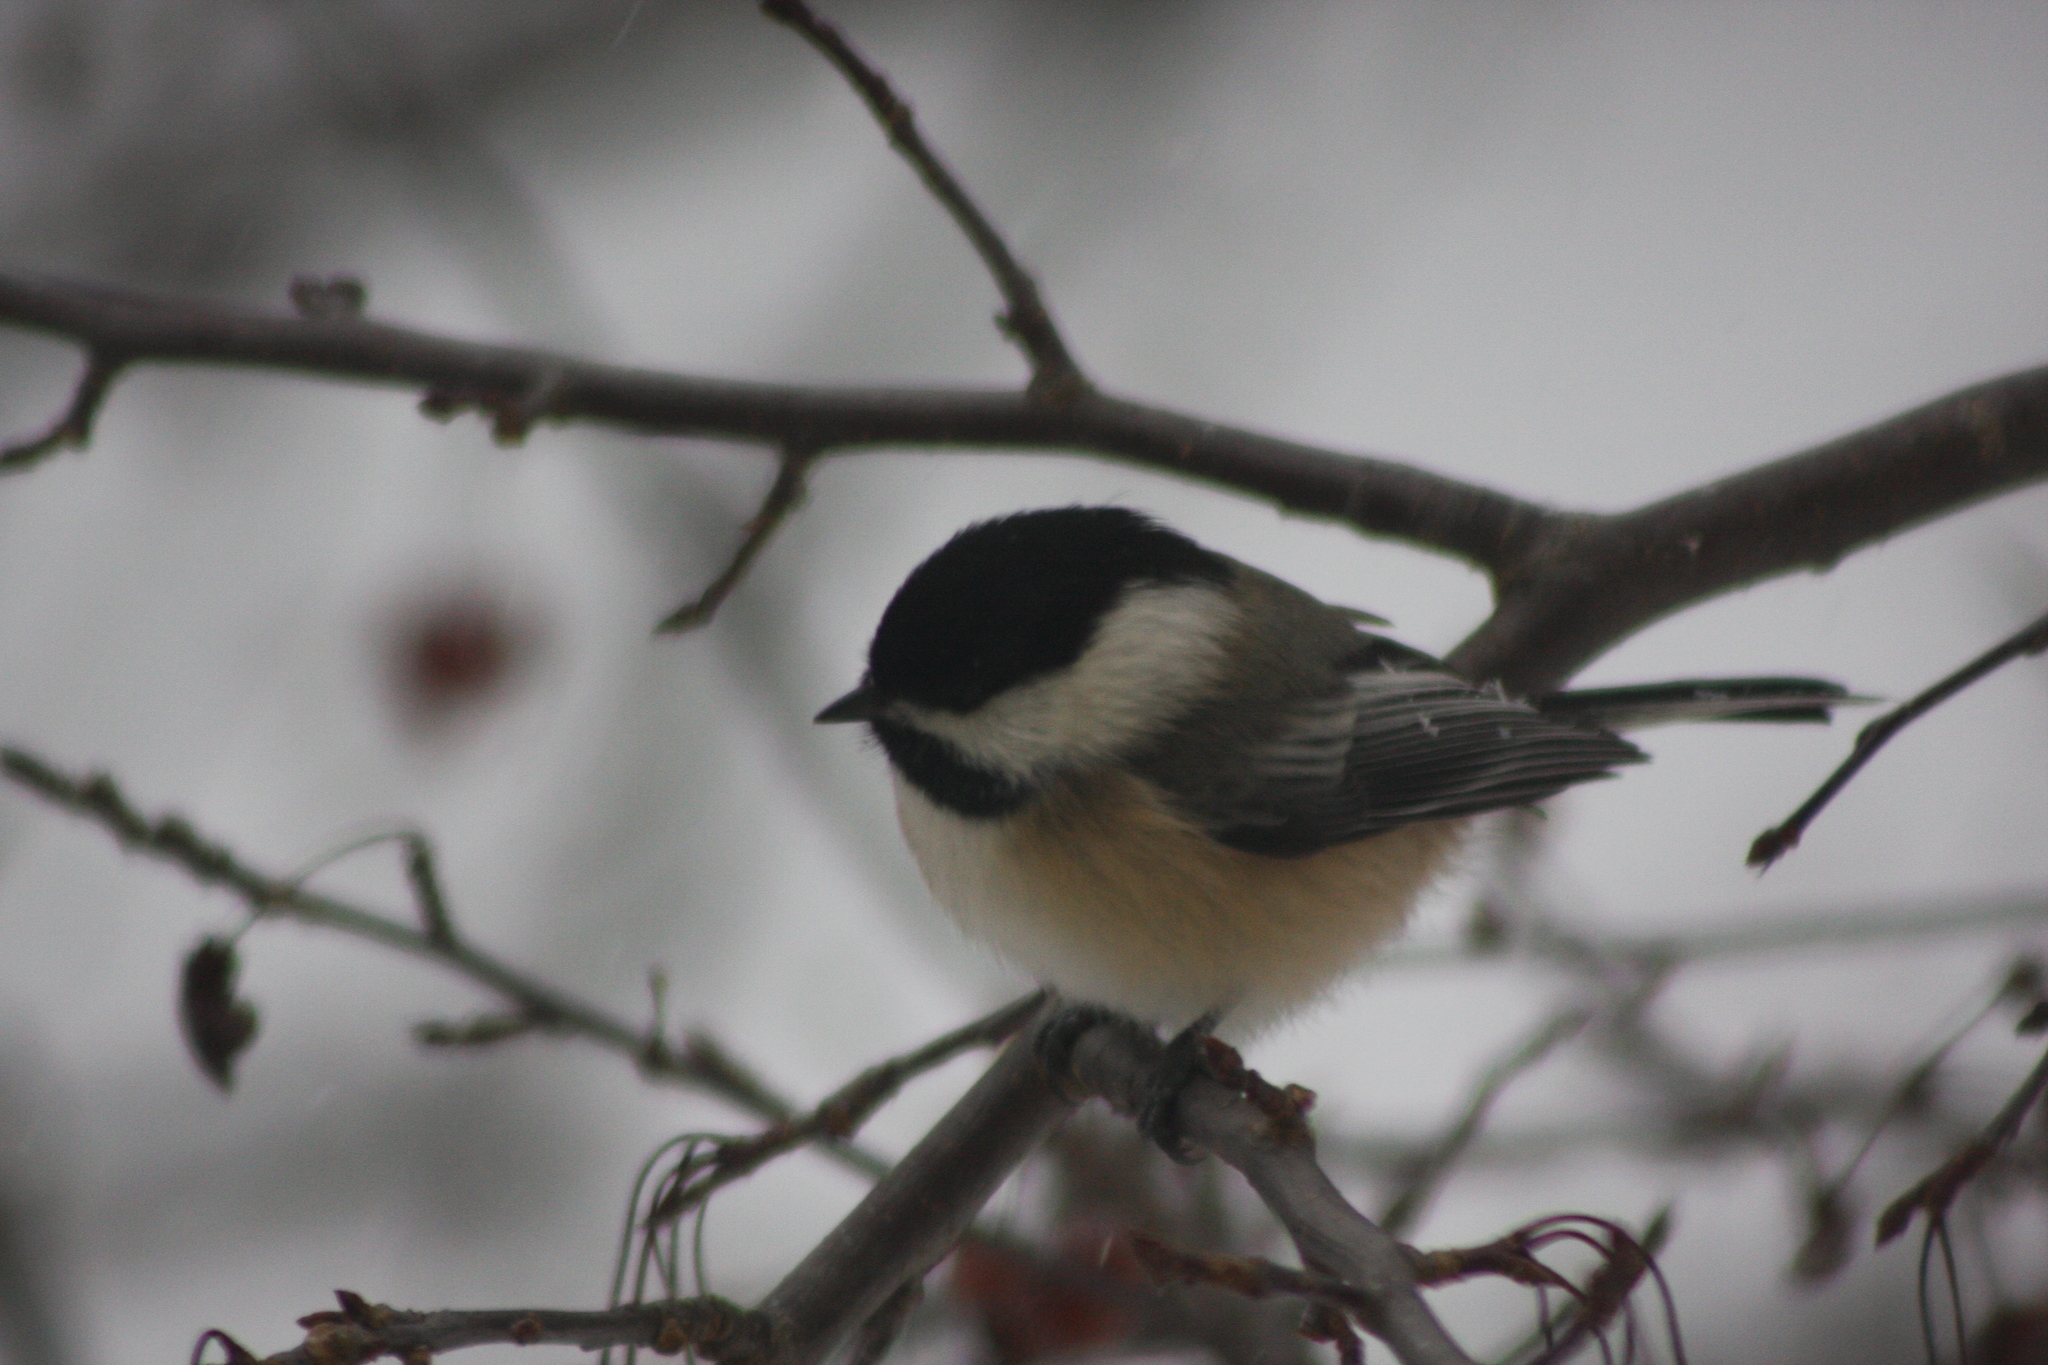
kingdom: Animalia
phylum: Chordata
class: Aves
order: Passeriformes
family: Paridae
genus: Poecile
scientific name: Poecile atricapillus
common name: Black-capped chickadee
